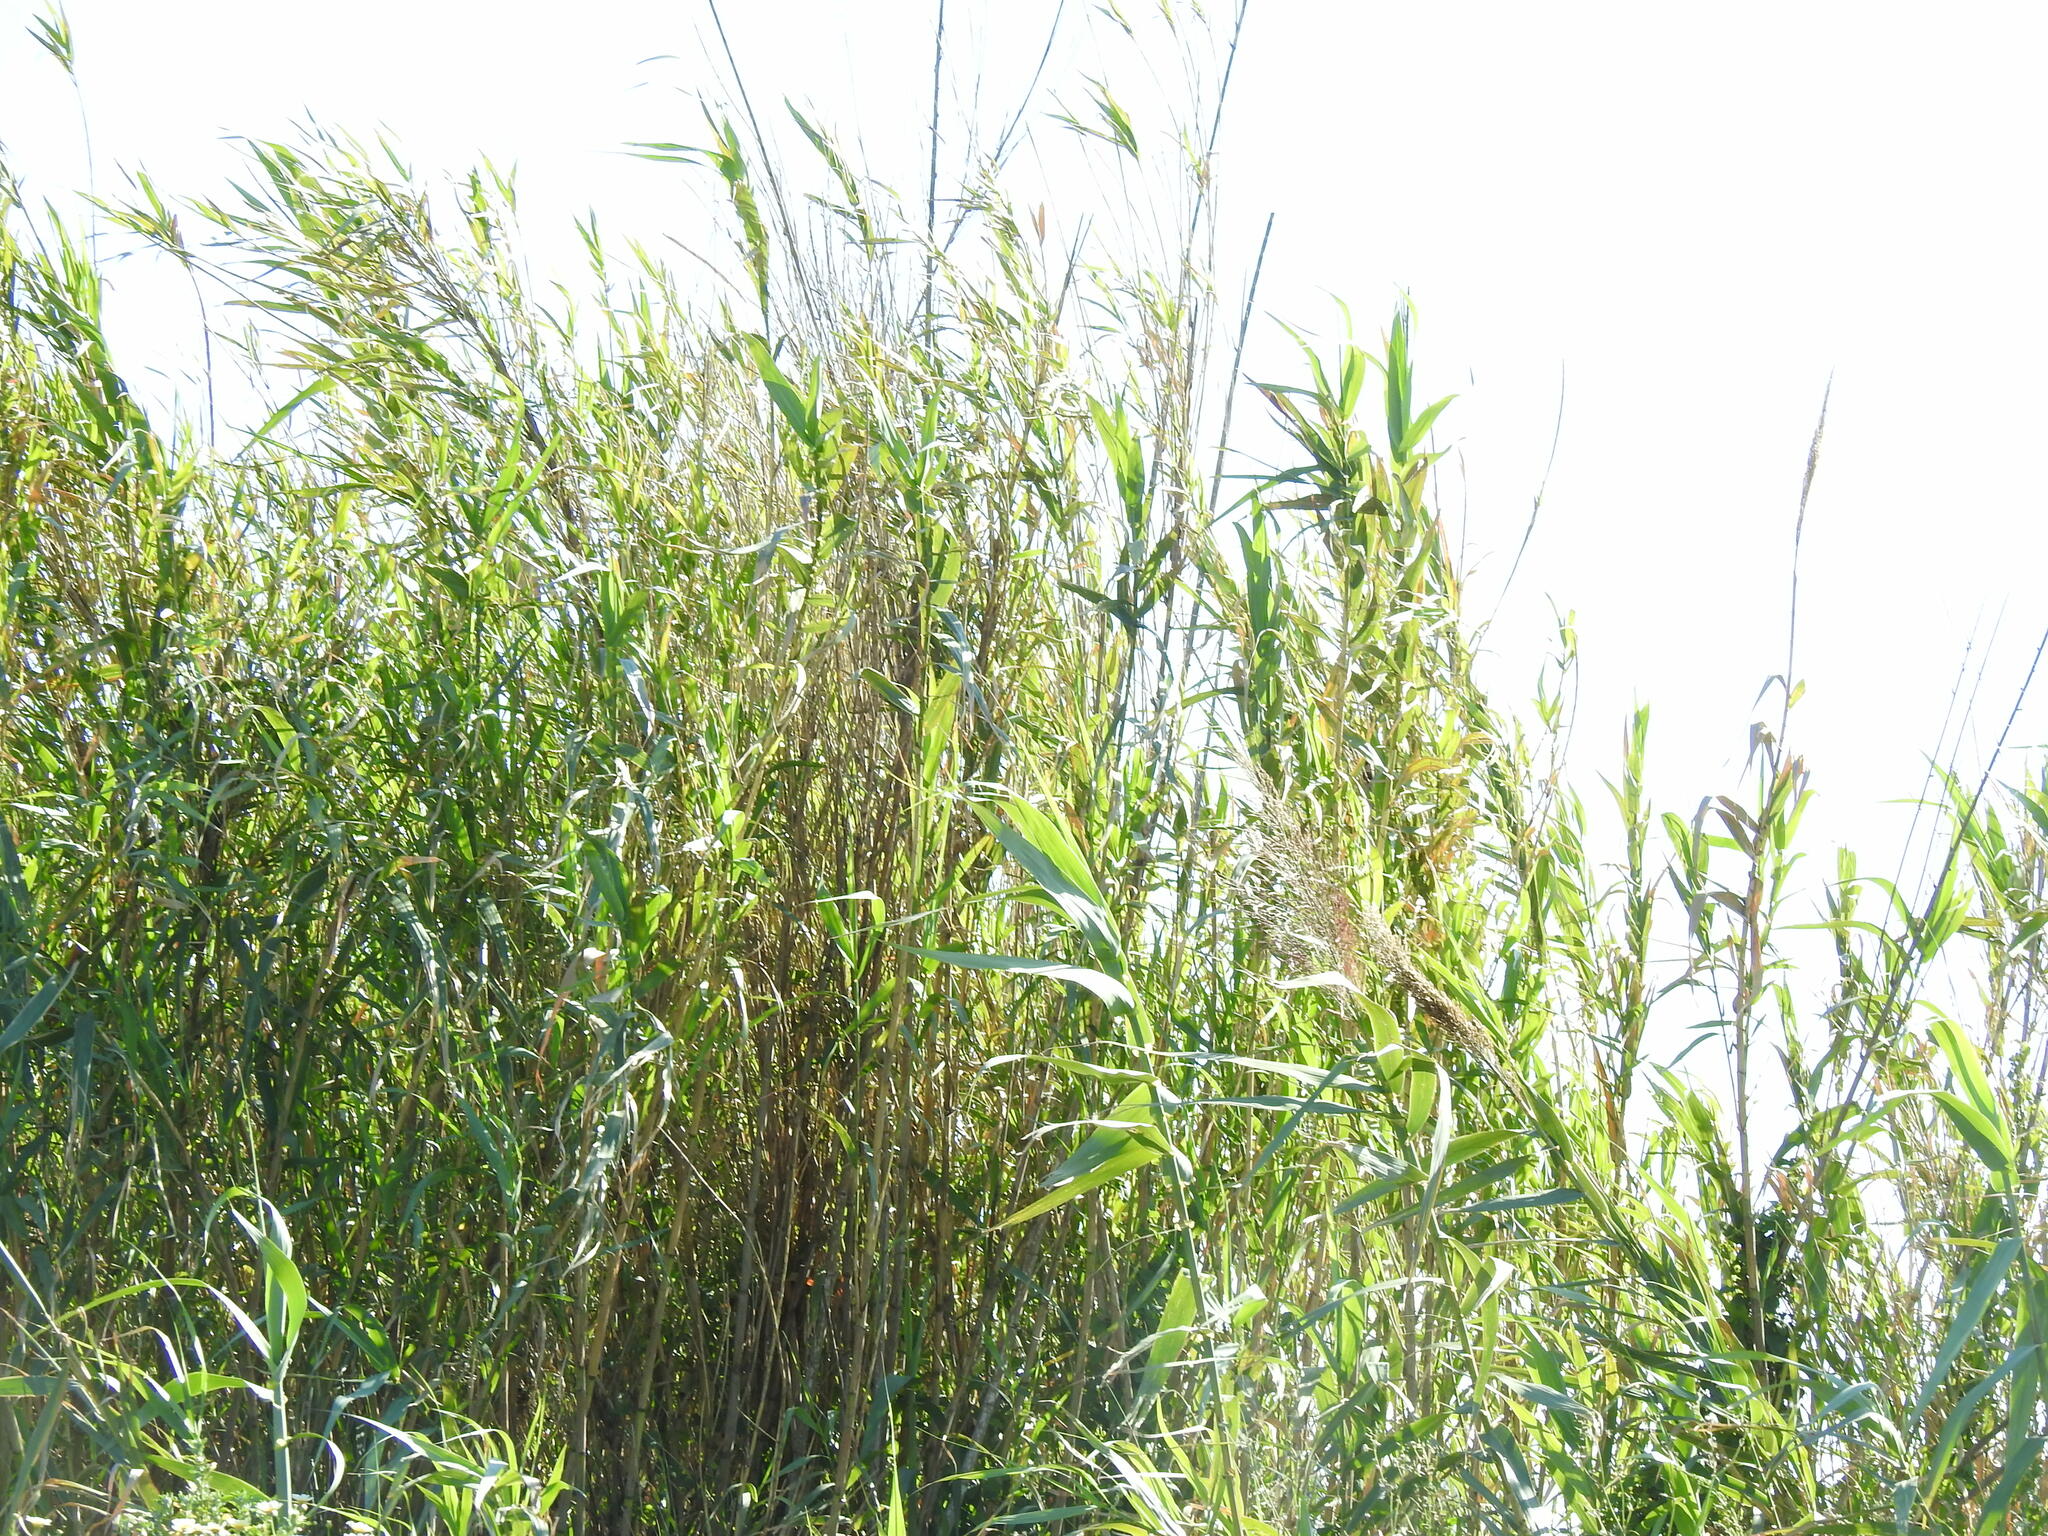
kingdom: Plantae
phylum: Tracheophyta
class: Liliopsida
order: Poales
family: Poaceae
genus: Arundo
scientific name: Arundo donax
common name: Giant reed
